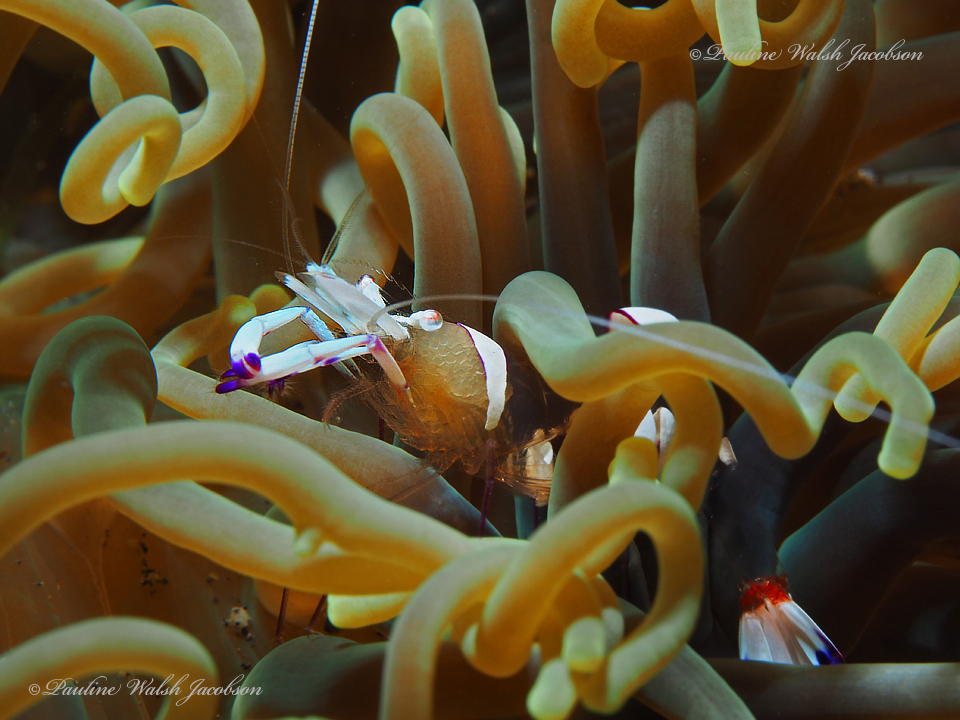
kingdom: Animalia
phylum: Arthropoda
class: Malacostraca
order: Decapoda
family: Palaemonidae
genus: Ancylomenes
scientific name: Ancylomenes holthuisi
